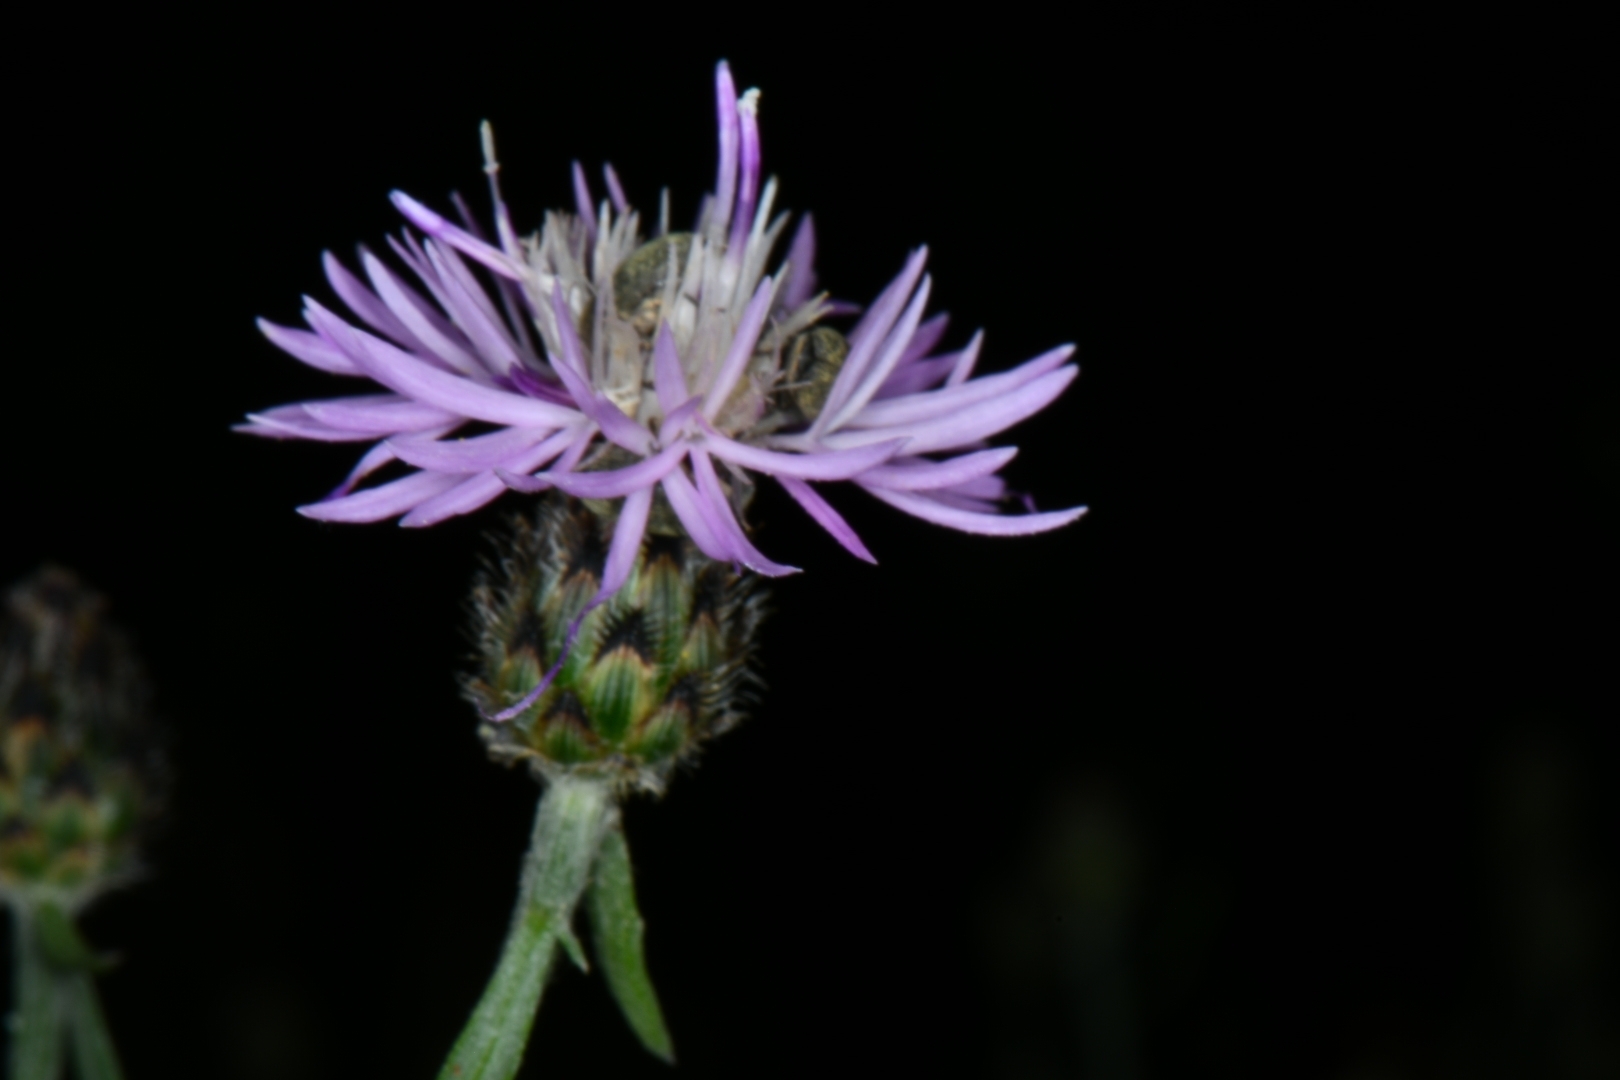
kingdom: Plantae
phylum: Tracheophyta
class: Magnoliopsida
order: Asterales
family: Asteraceae
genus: Centaurea
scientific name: Centaurea stoebe
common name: Spotted knapweed
